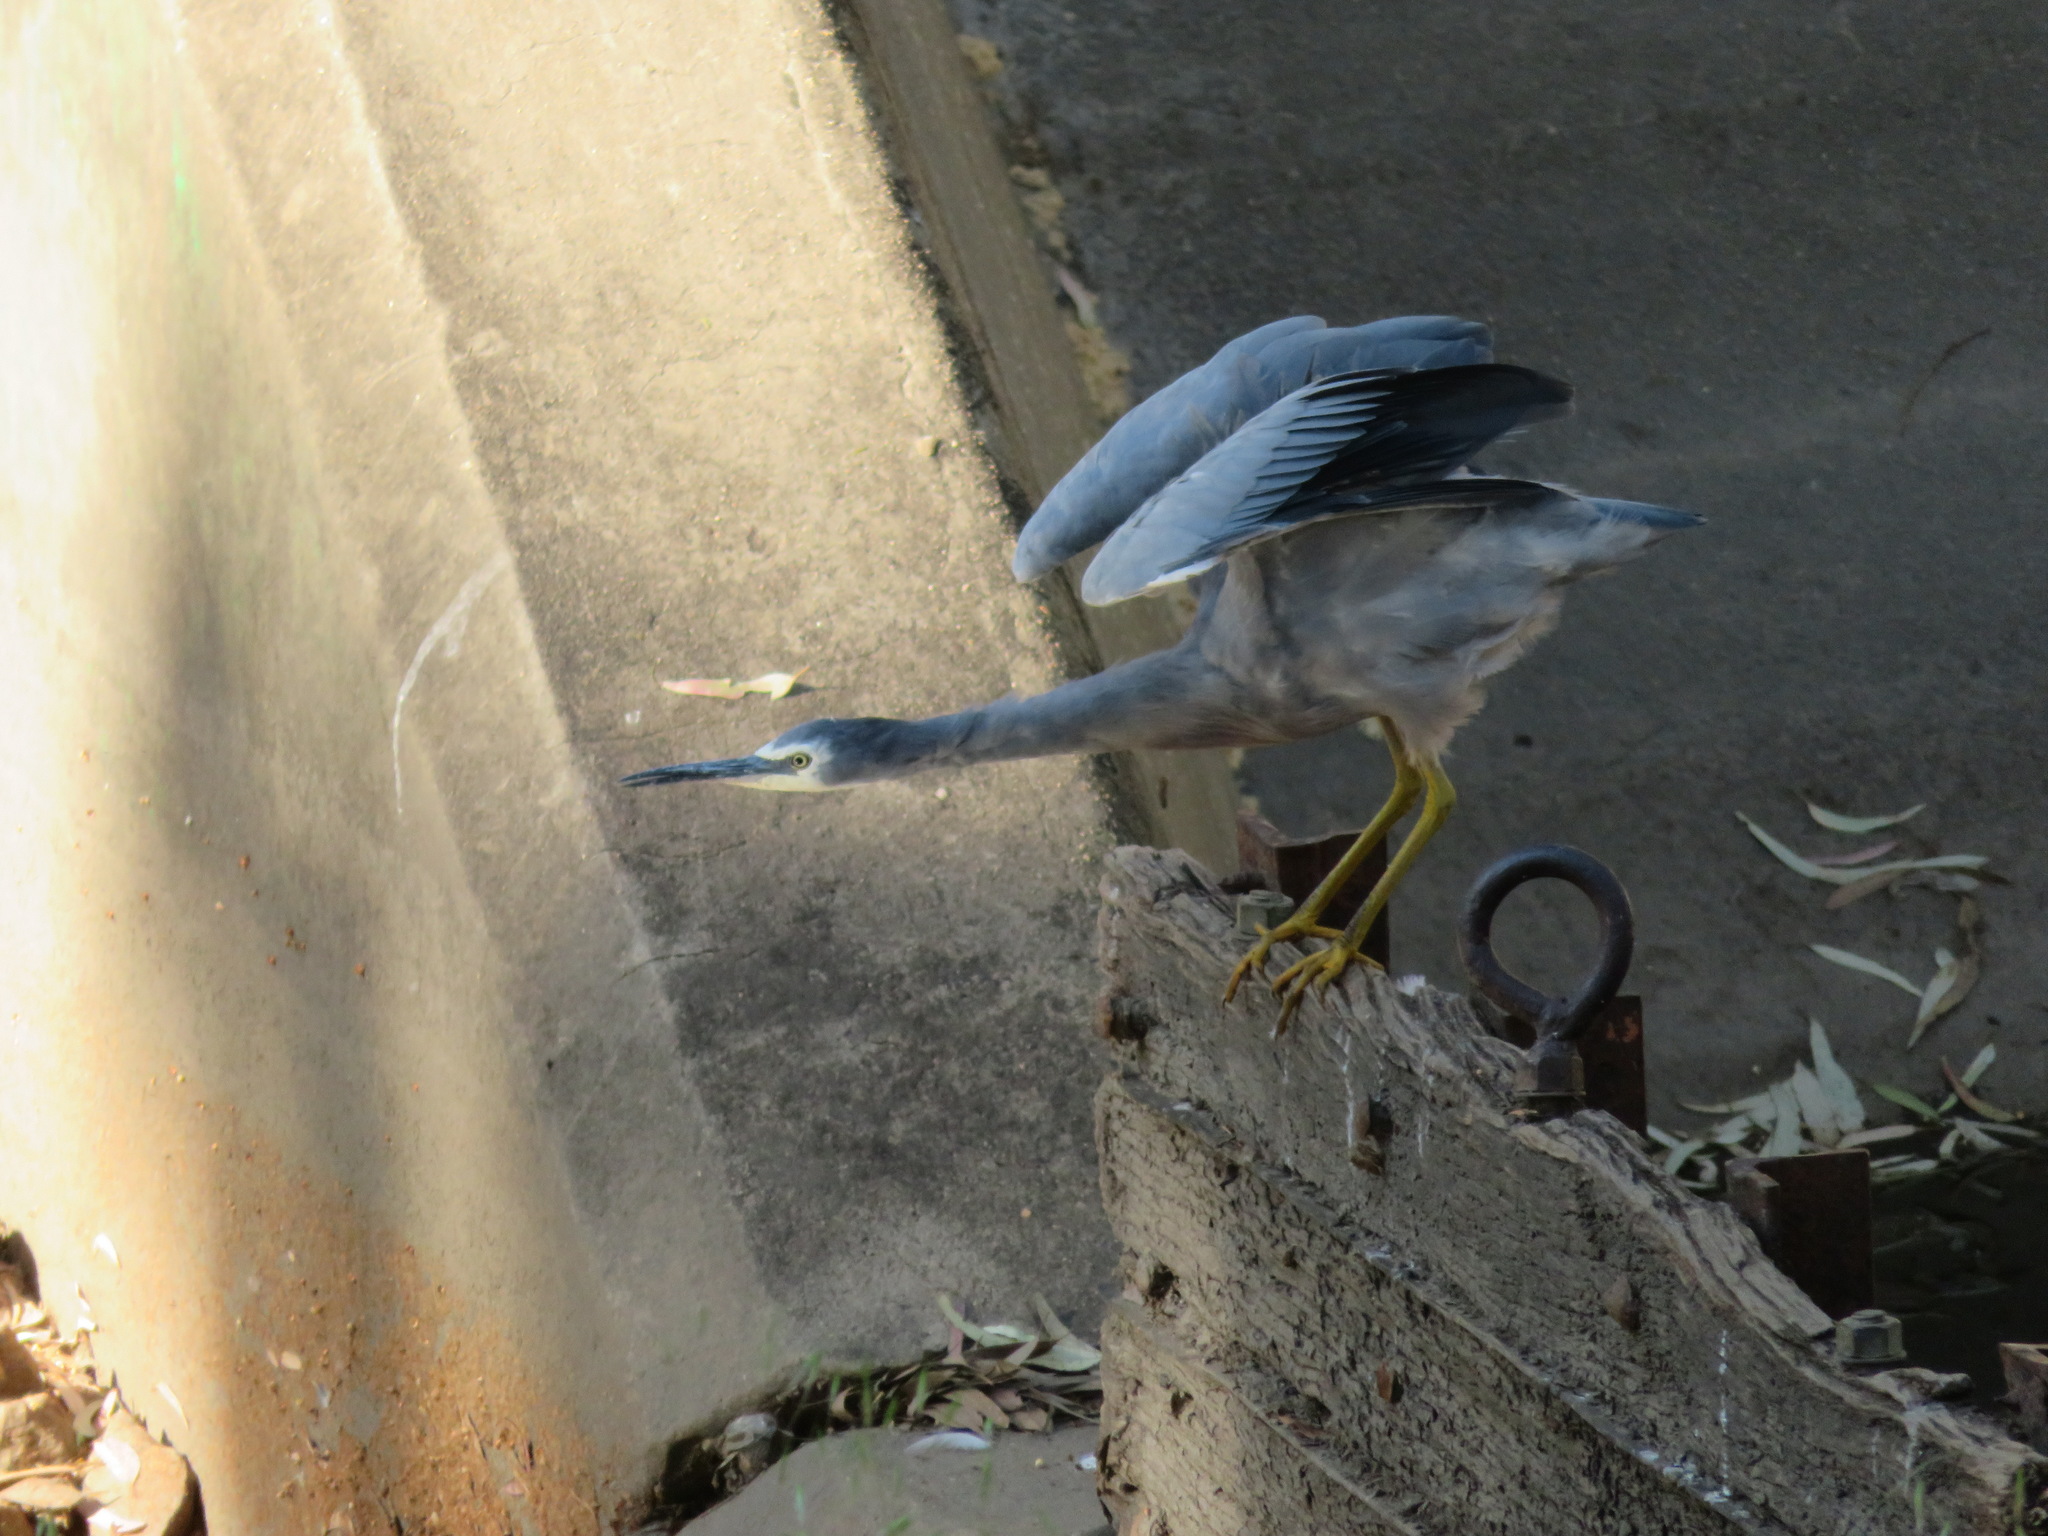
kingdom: Animalia
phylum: Chordata
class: Aves
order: Pelecaniformes
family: Ardeidae
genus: Egretta
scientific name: Egretta novaehollandiae
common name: White-faced heron
